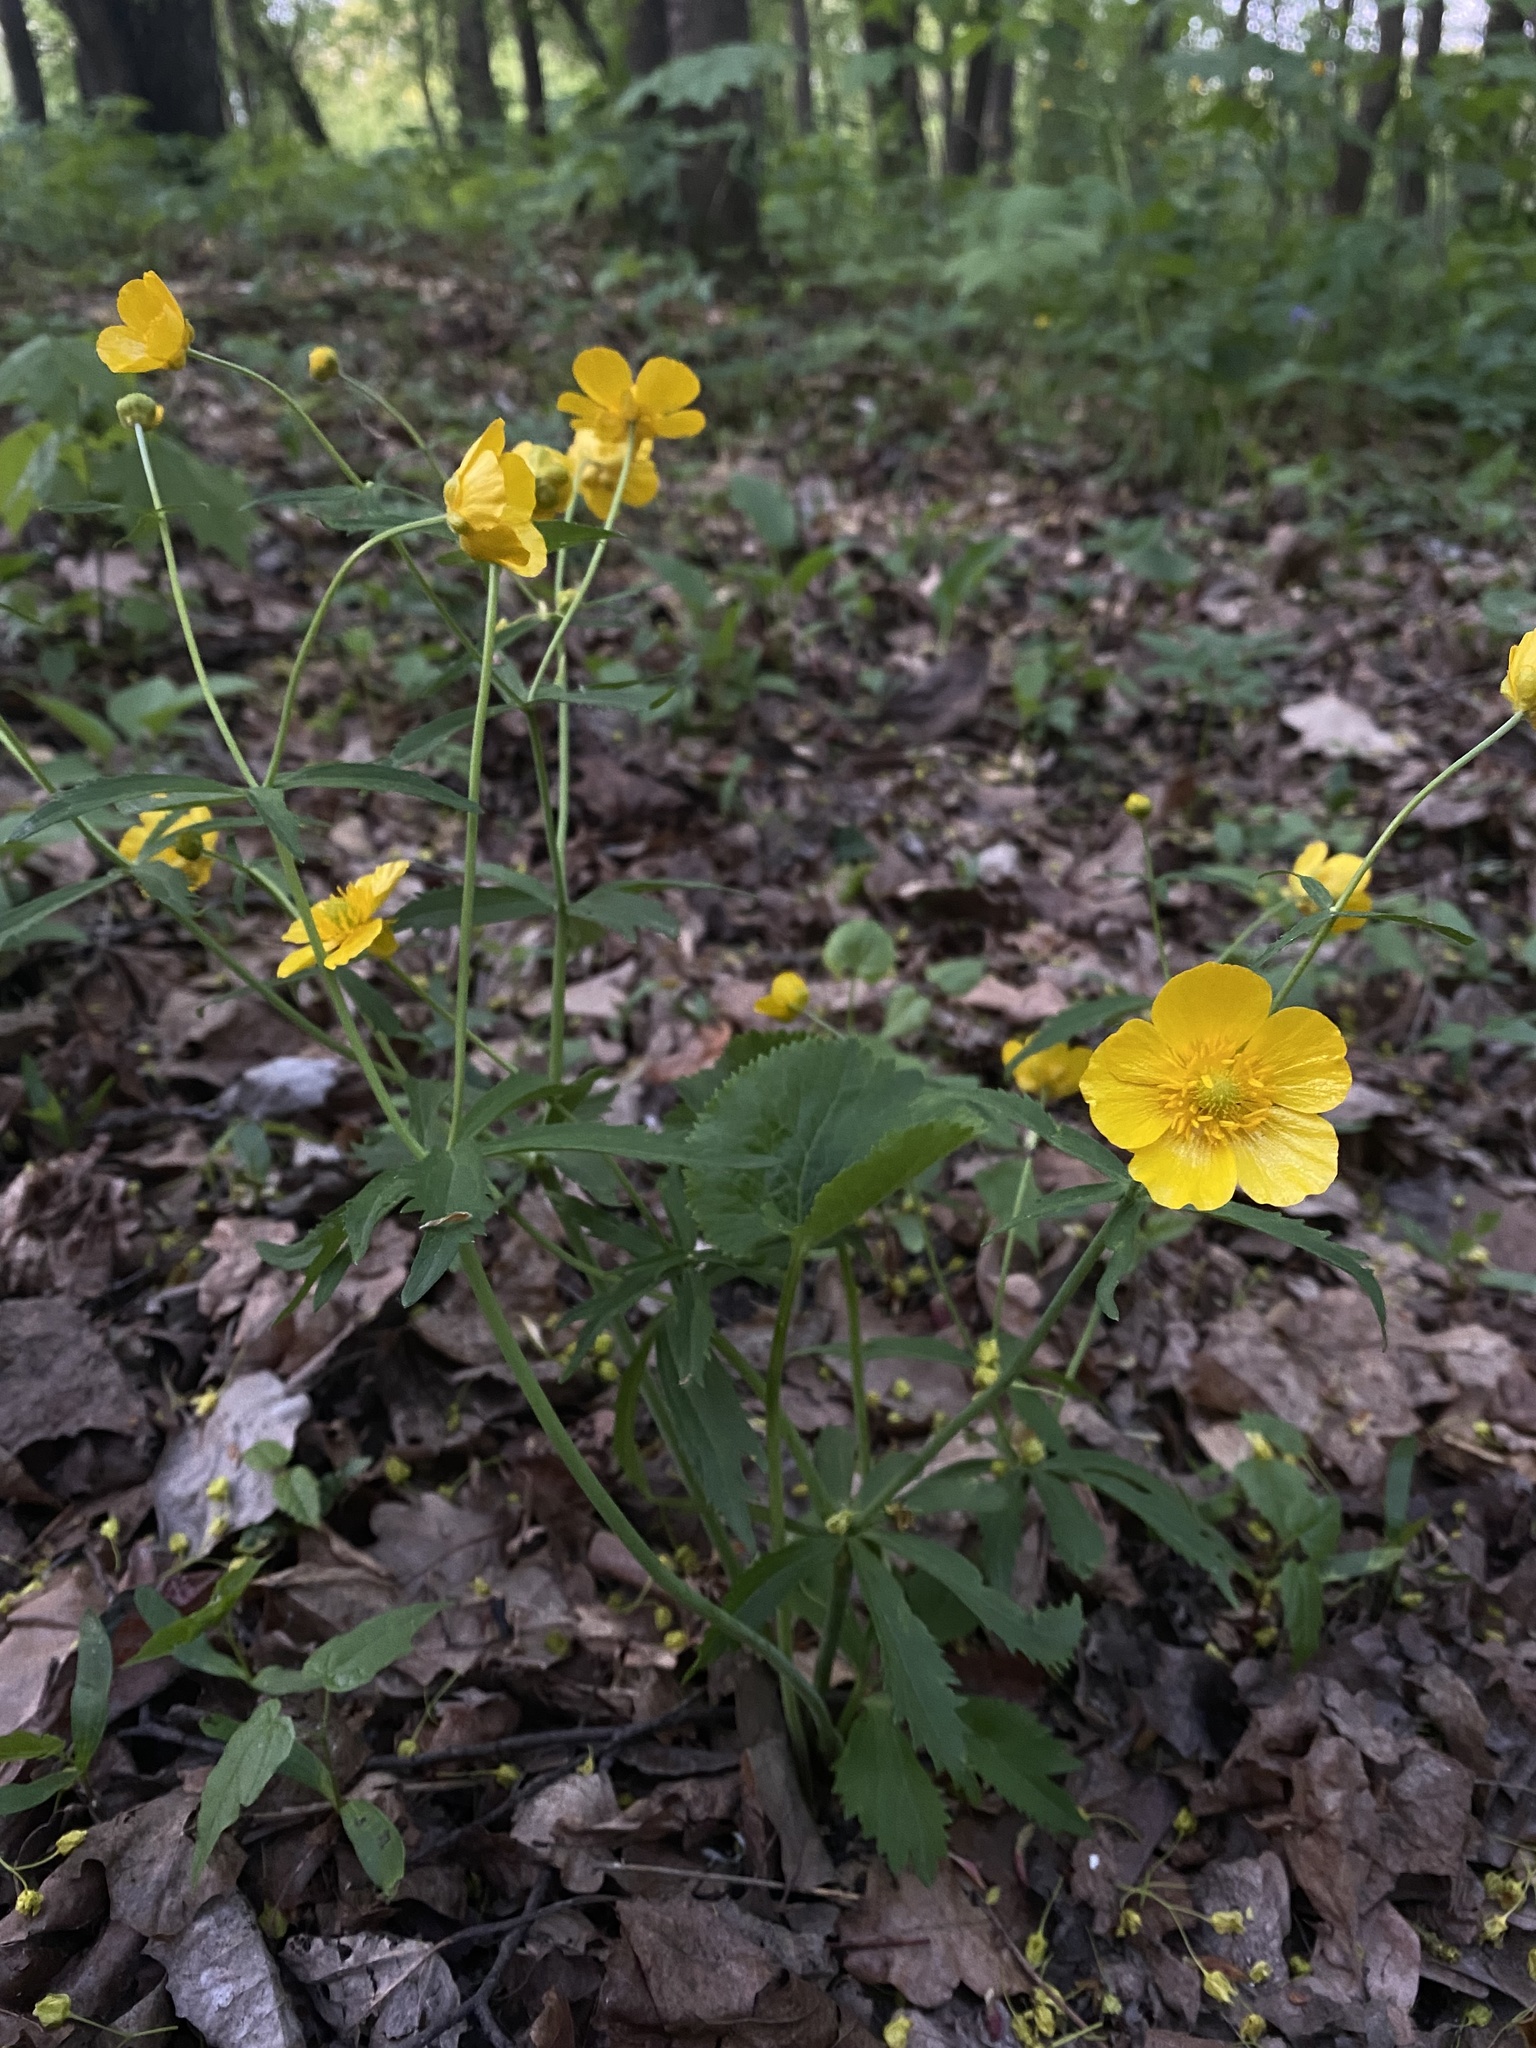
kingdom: Plantae
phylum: Tracheophyta
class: Magnoliopsida
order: Ranunculales
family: Ranunculaceae
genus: Ranunculus
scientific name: Ranunculus cassubicus
